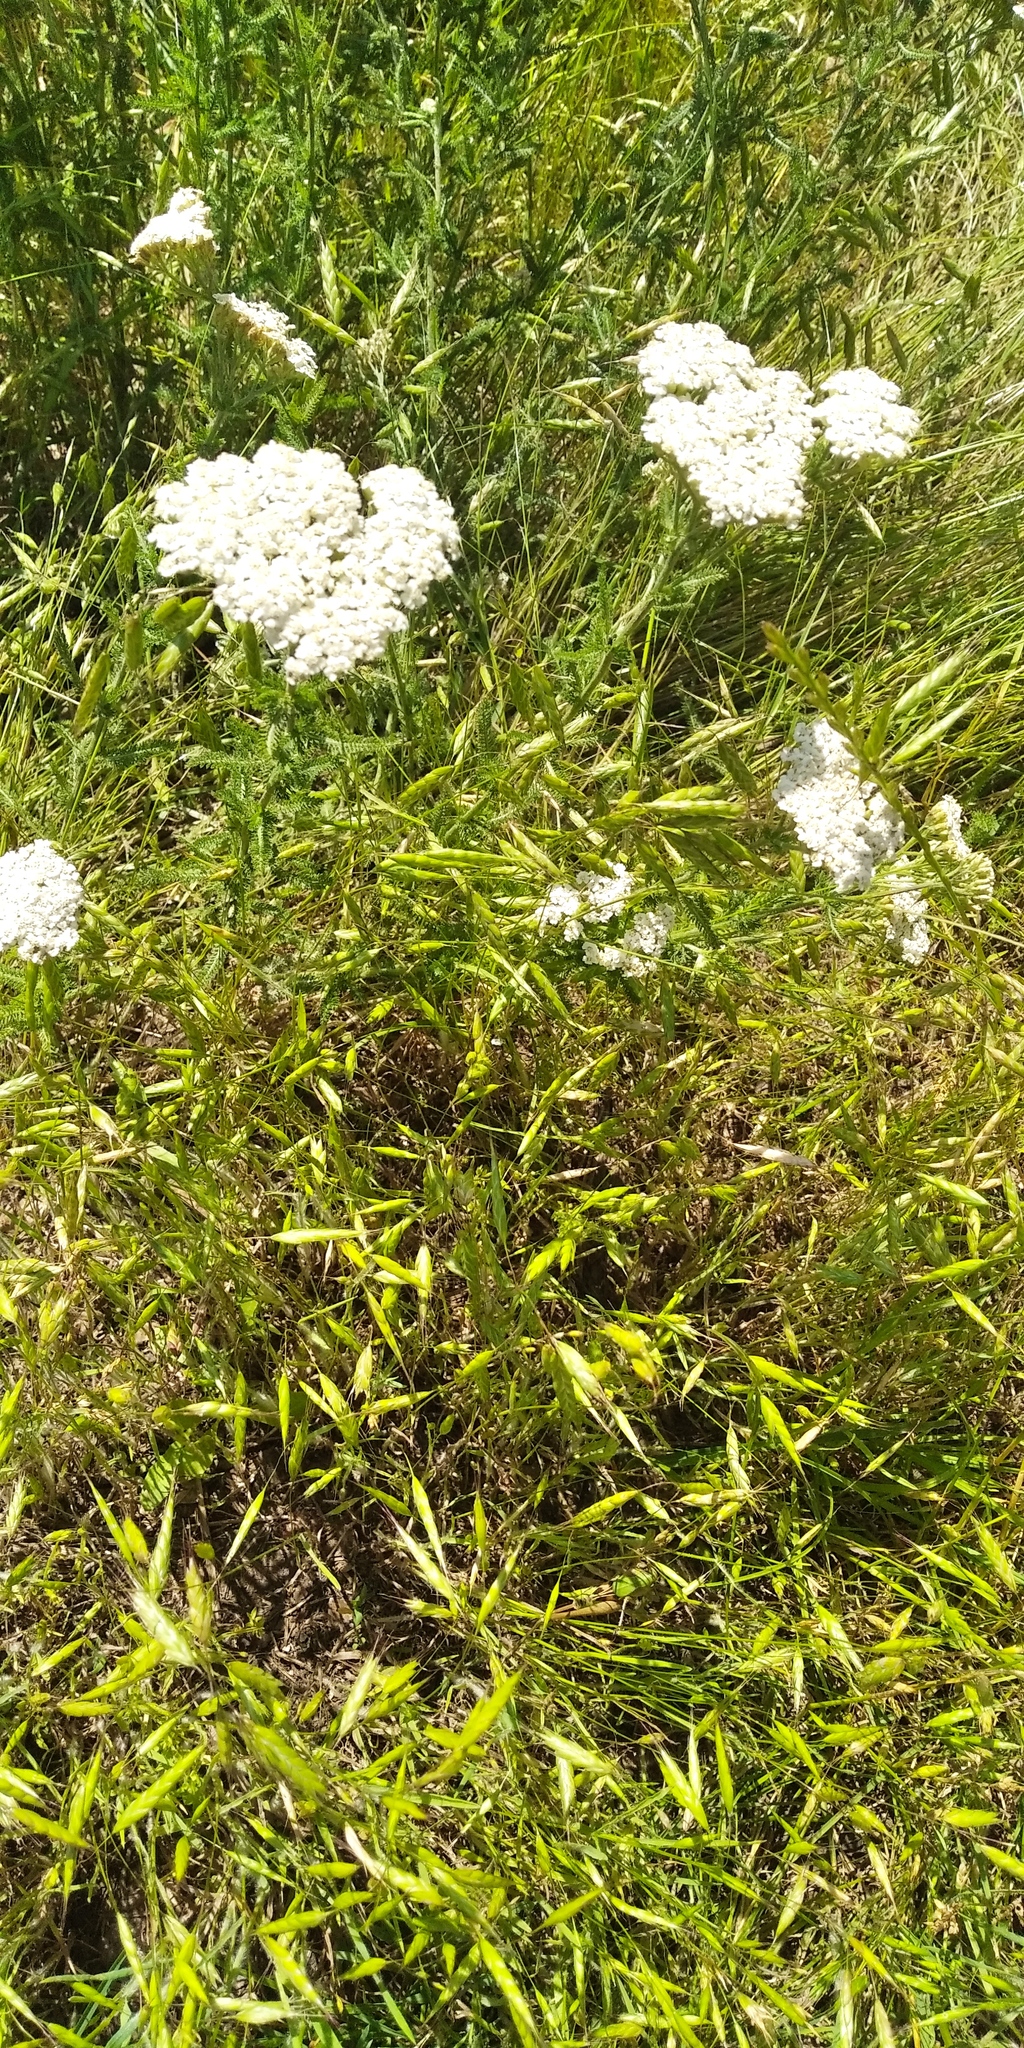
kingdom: Plantae
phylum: Tracheophyta
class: Liliopsida
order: Poales
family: Poaceae
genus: Bromus
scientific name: Bromus squarrosus
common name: Corn brome
